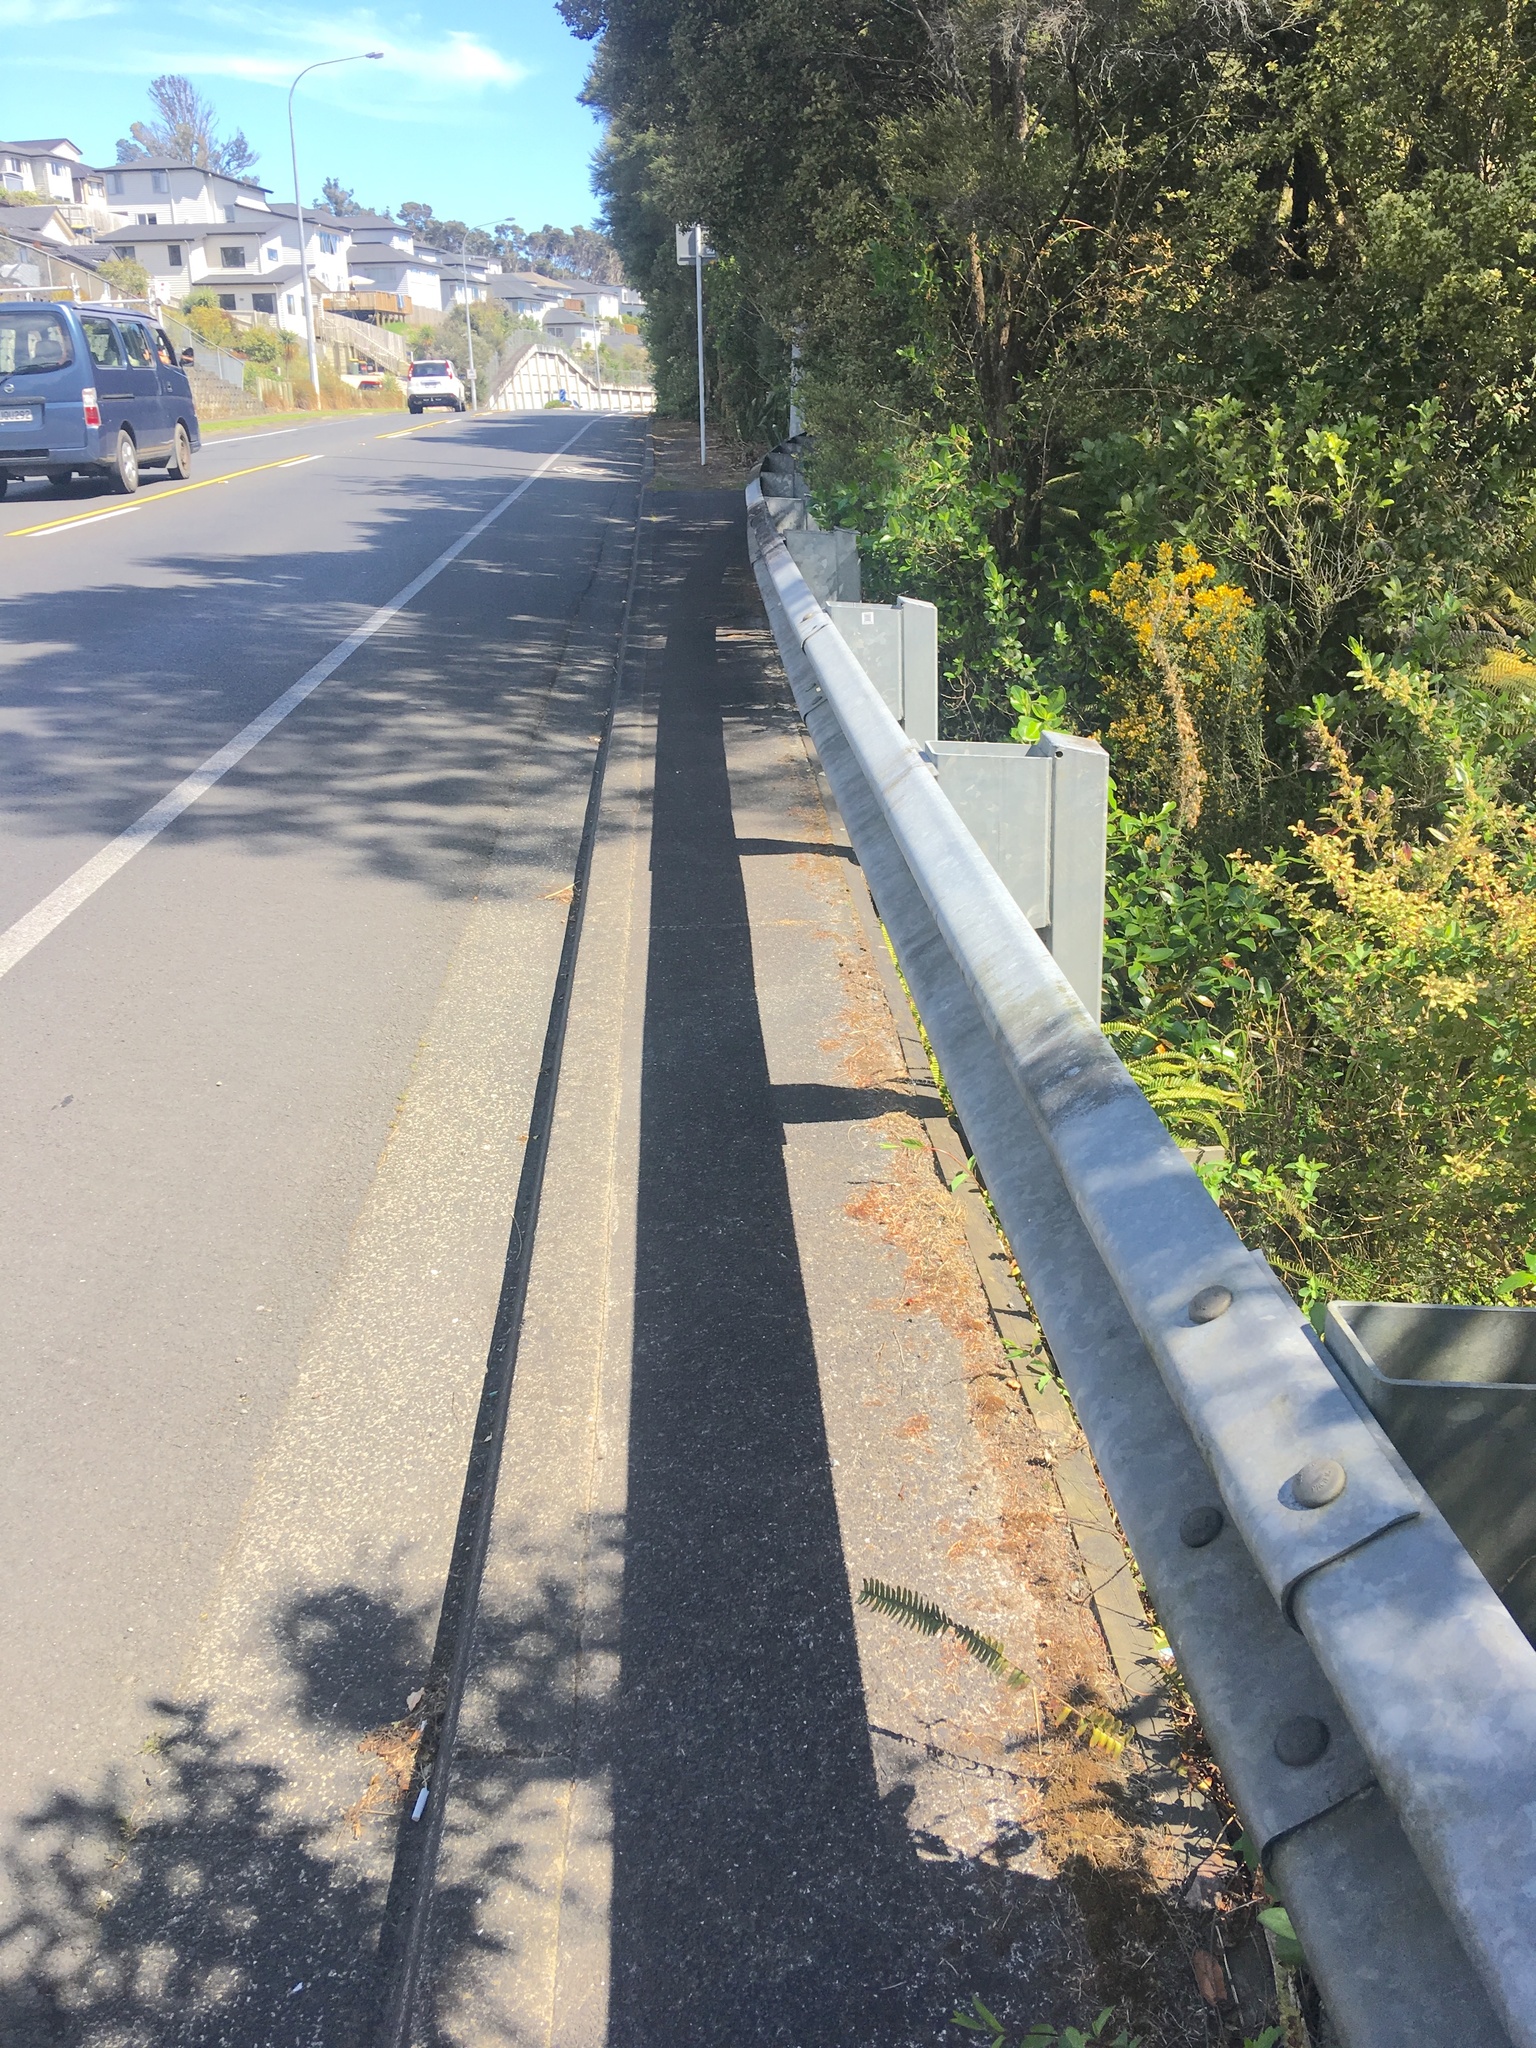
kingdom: Plantae
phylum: Tracheophyta
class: Magnoliopsida
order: Fabales
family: Fabaceae
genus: Ulex
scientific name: Ulex europaeus
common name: Common gorse
